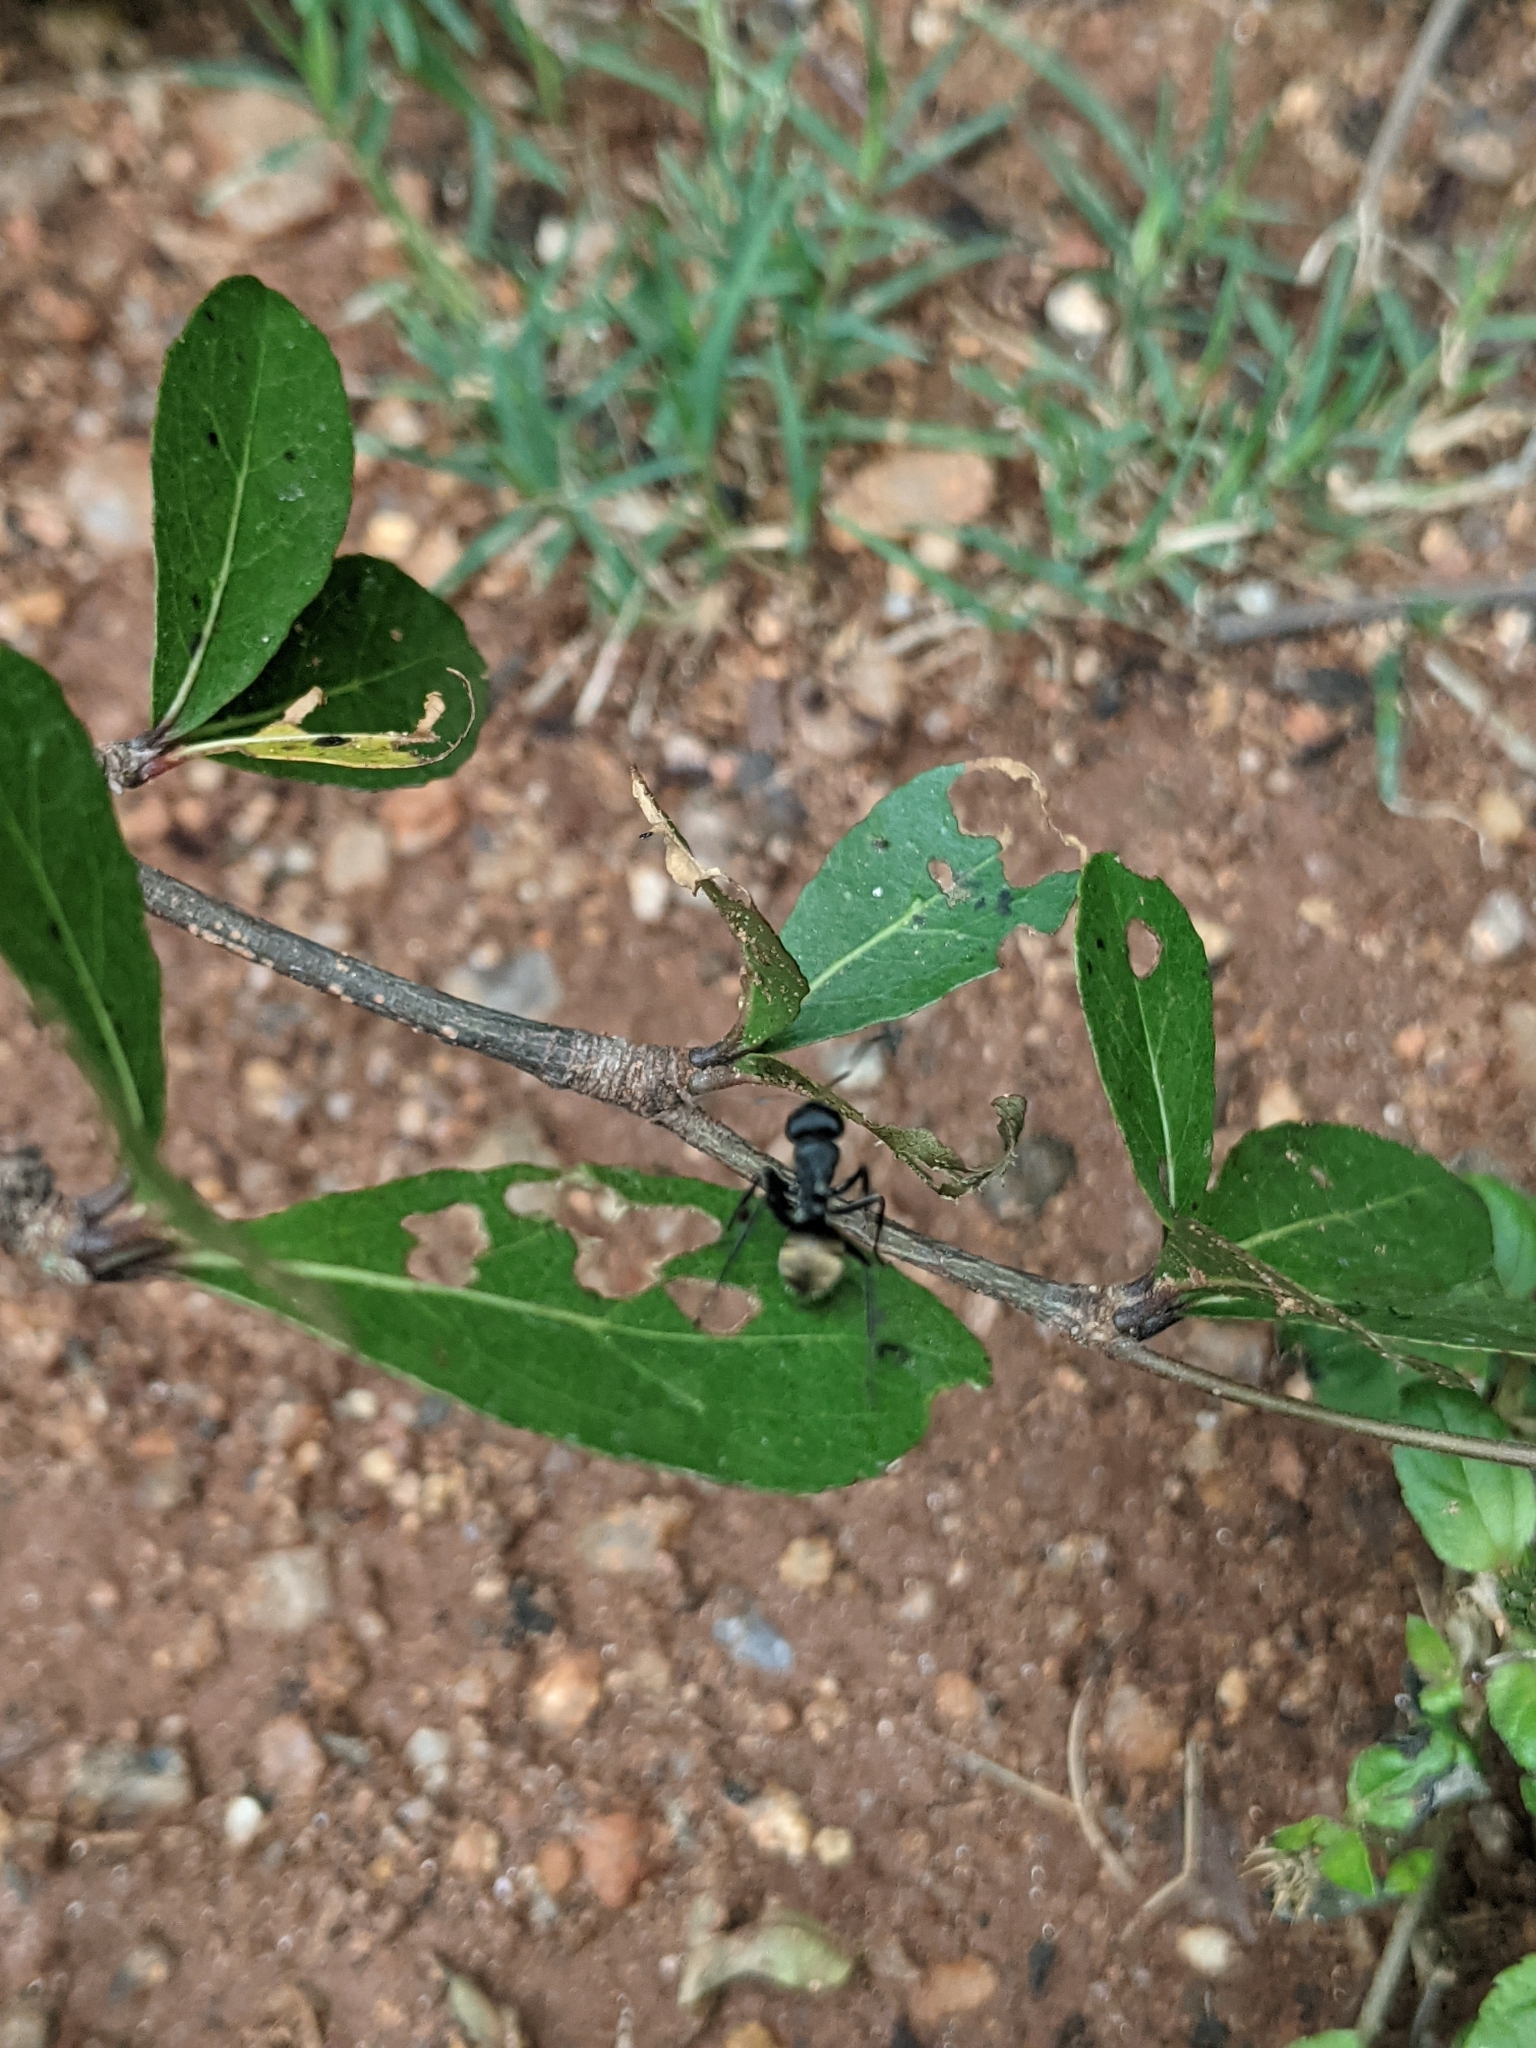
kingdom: Animalia
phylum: Arthropoda
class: Insecta
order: Hymenoptera
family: Formicidae
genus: Camponotus
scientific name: Camponotus sericeus
